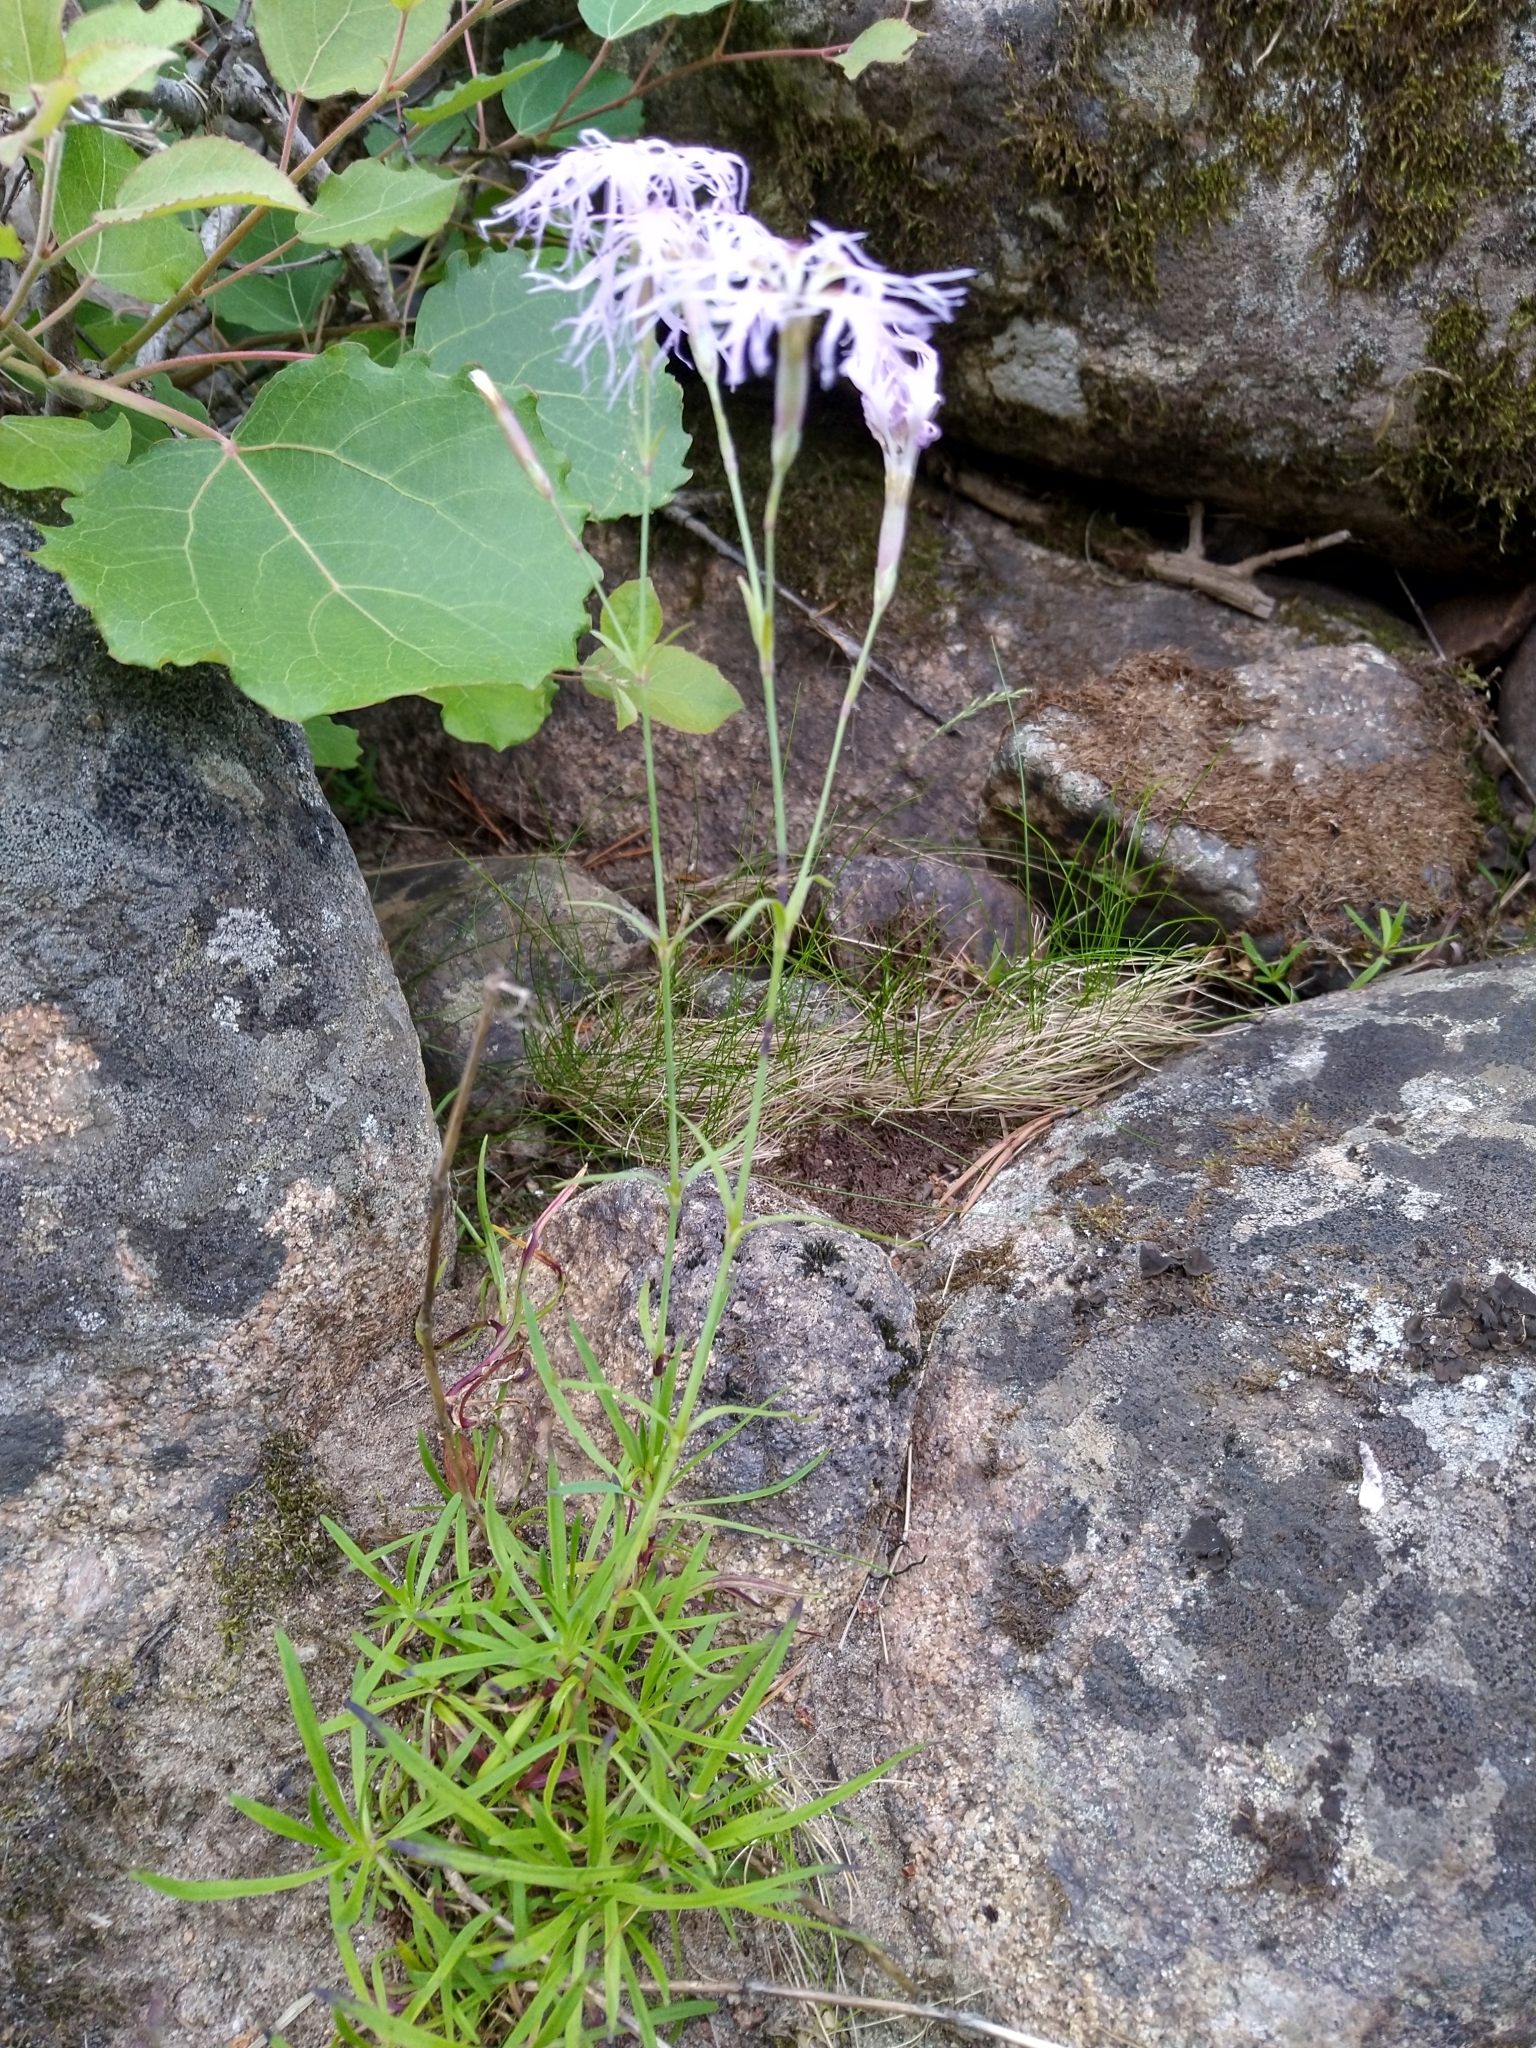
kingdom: Plantae
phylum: Tracheophyta
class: Magnoliopsida
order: Caryophyllales
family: Caryophyllaceae
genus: Dianthus
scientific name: Dianthus superbus
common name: Fringed pink
